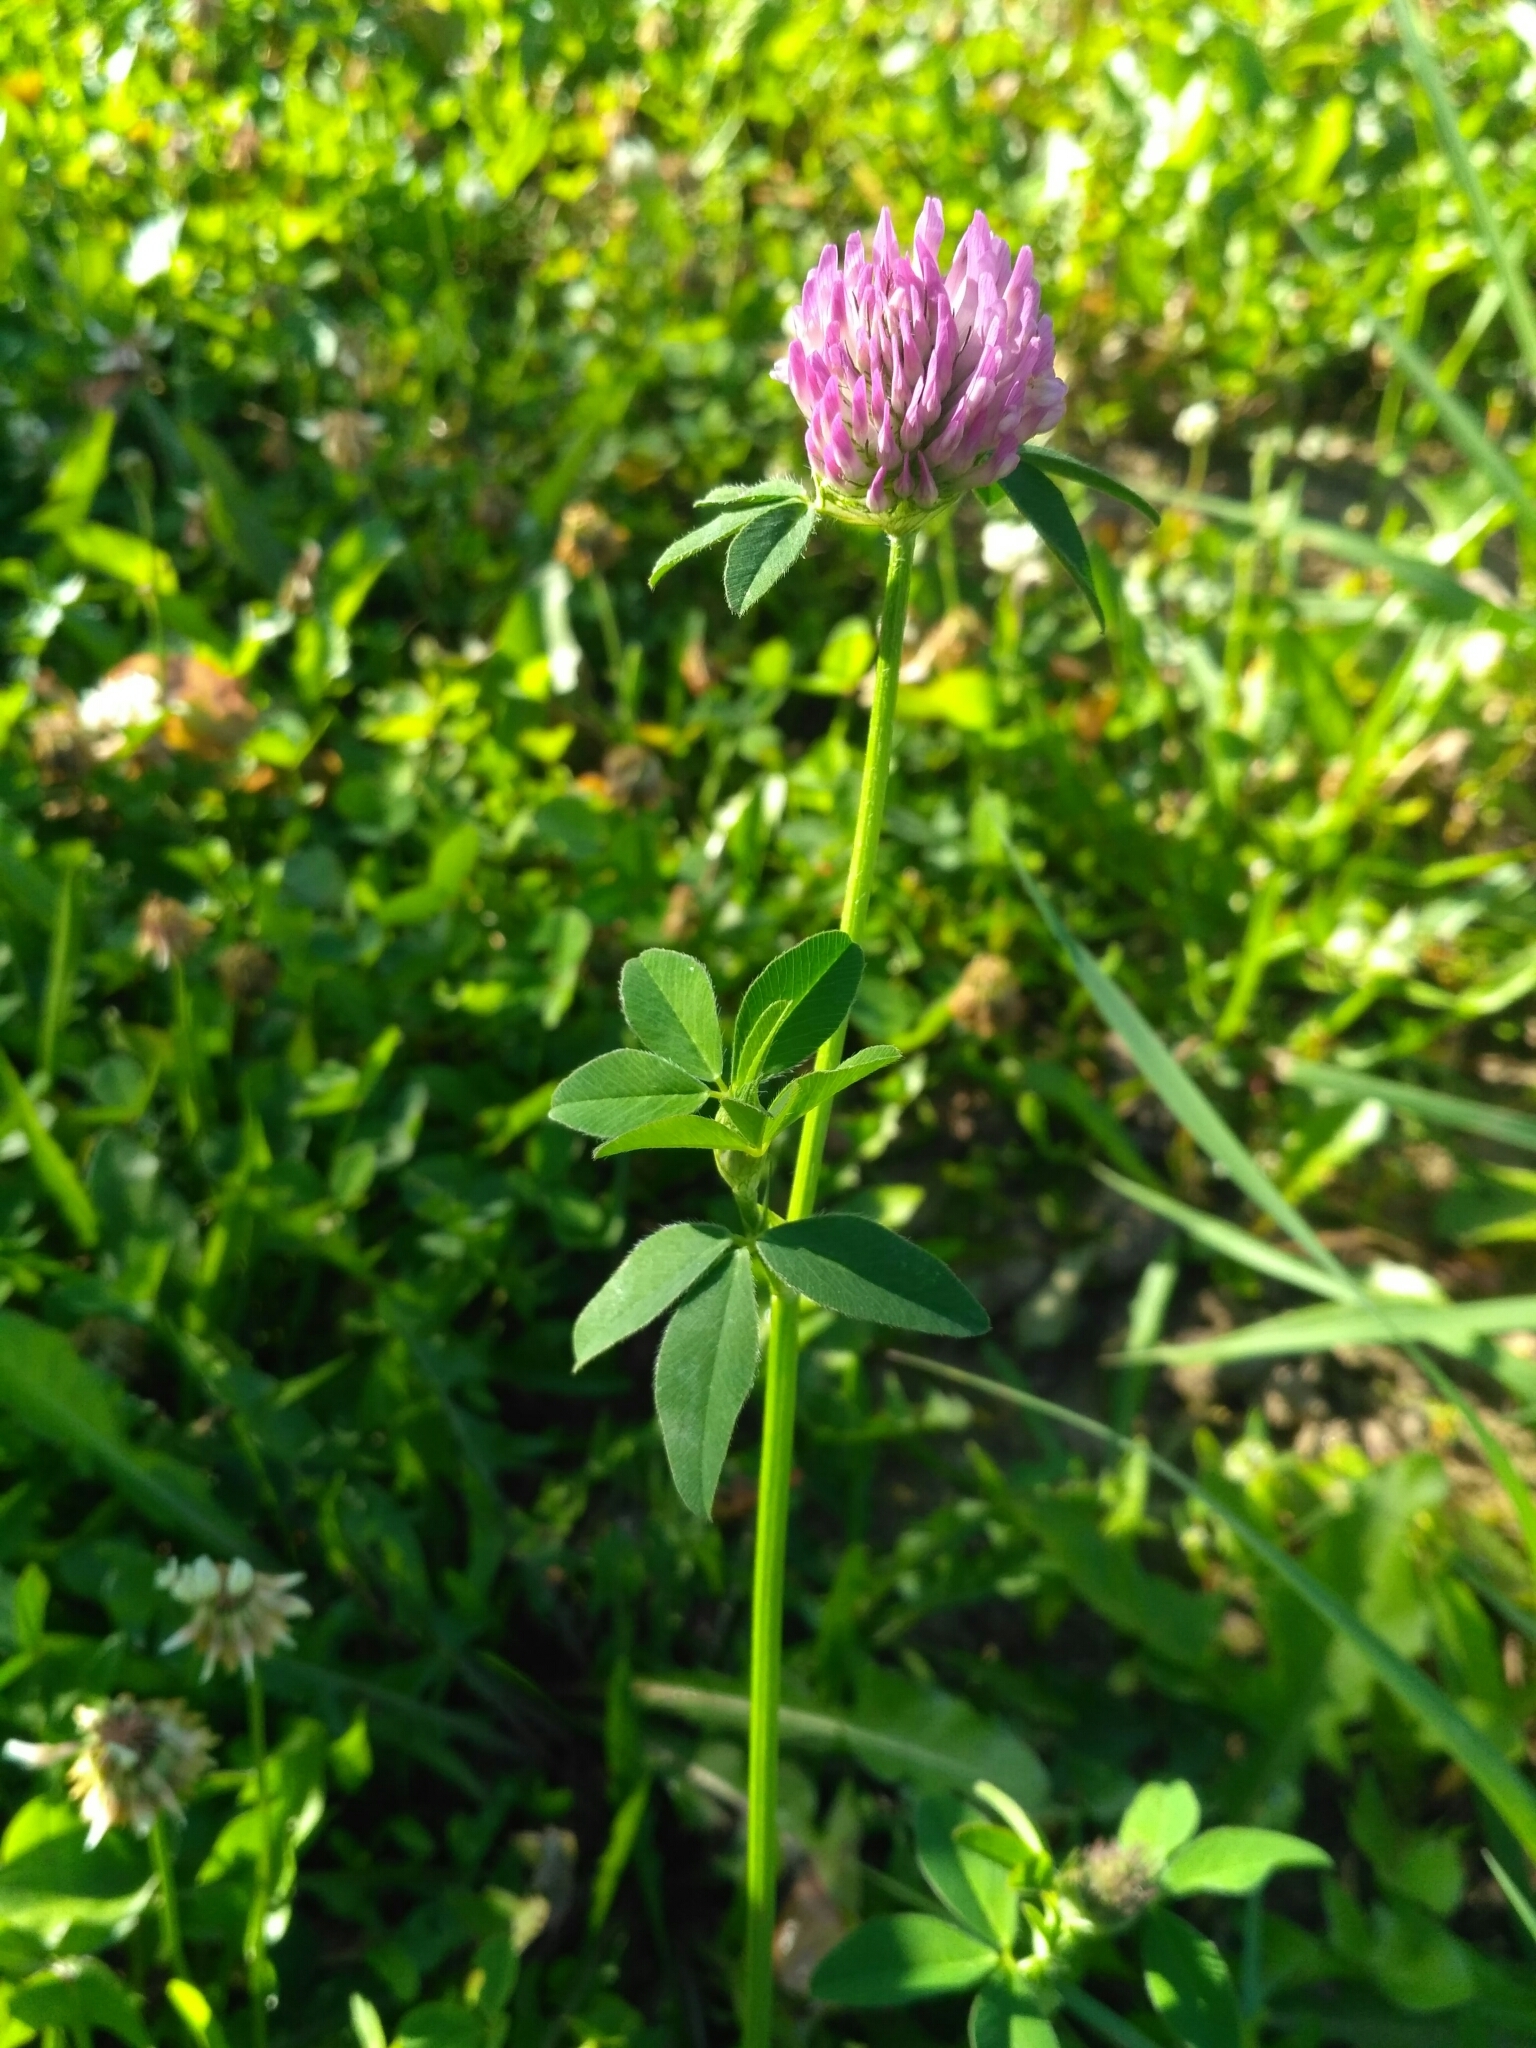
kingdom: Plantae
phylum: Tracheophyta
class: Magnoliopsida
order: Fabales
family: Fabaceae
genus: Trifolium
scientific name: Trifolium pratense
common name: Red clover
